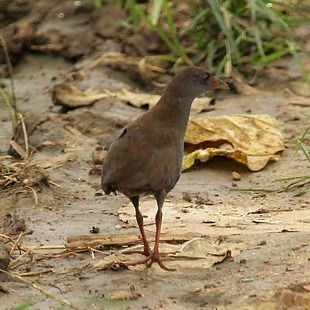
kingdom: Animalia
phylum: Chordata
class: Aves
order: Gruiformes
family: Rallidae
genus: Neocrex
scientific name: Neocrex erythrops
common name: Paint-billed crake
